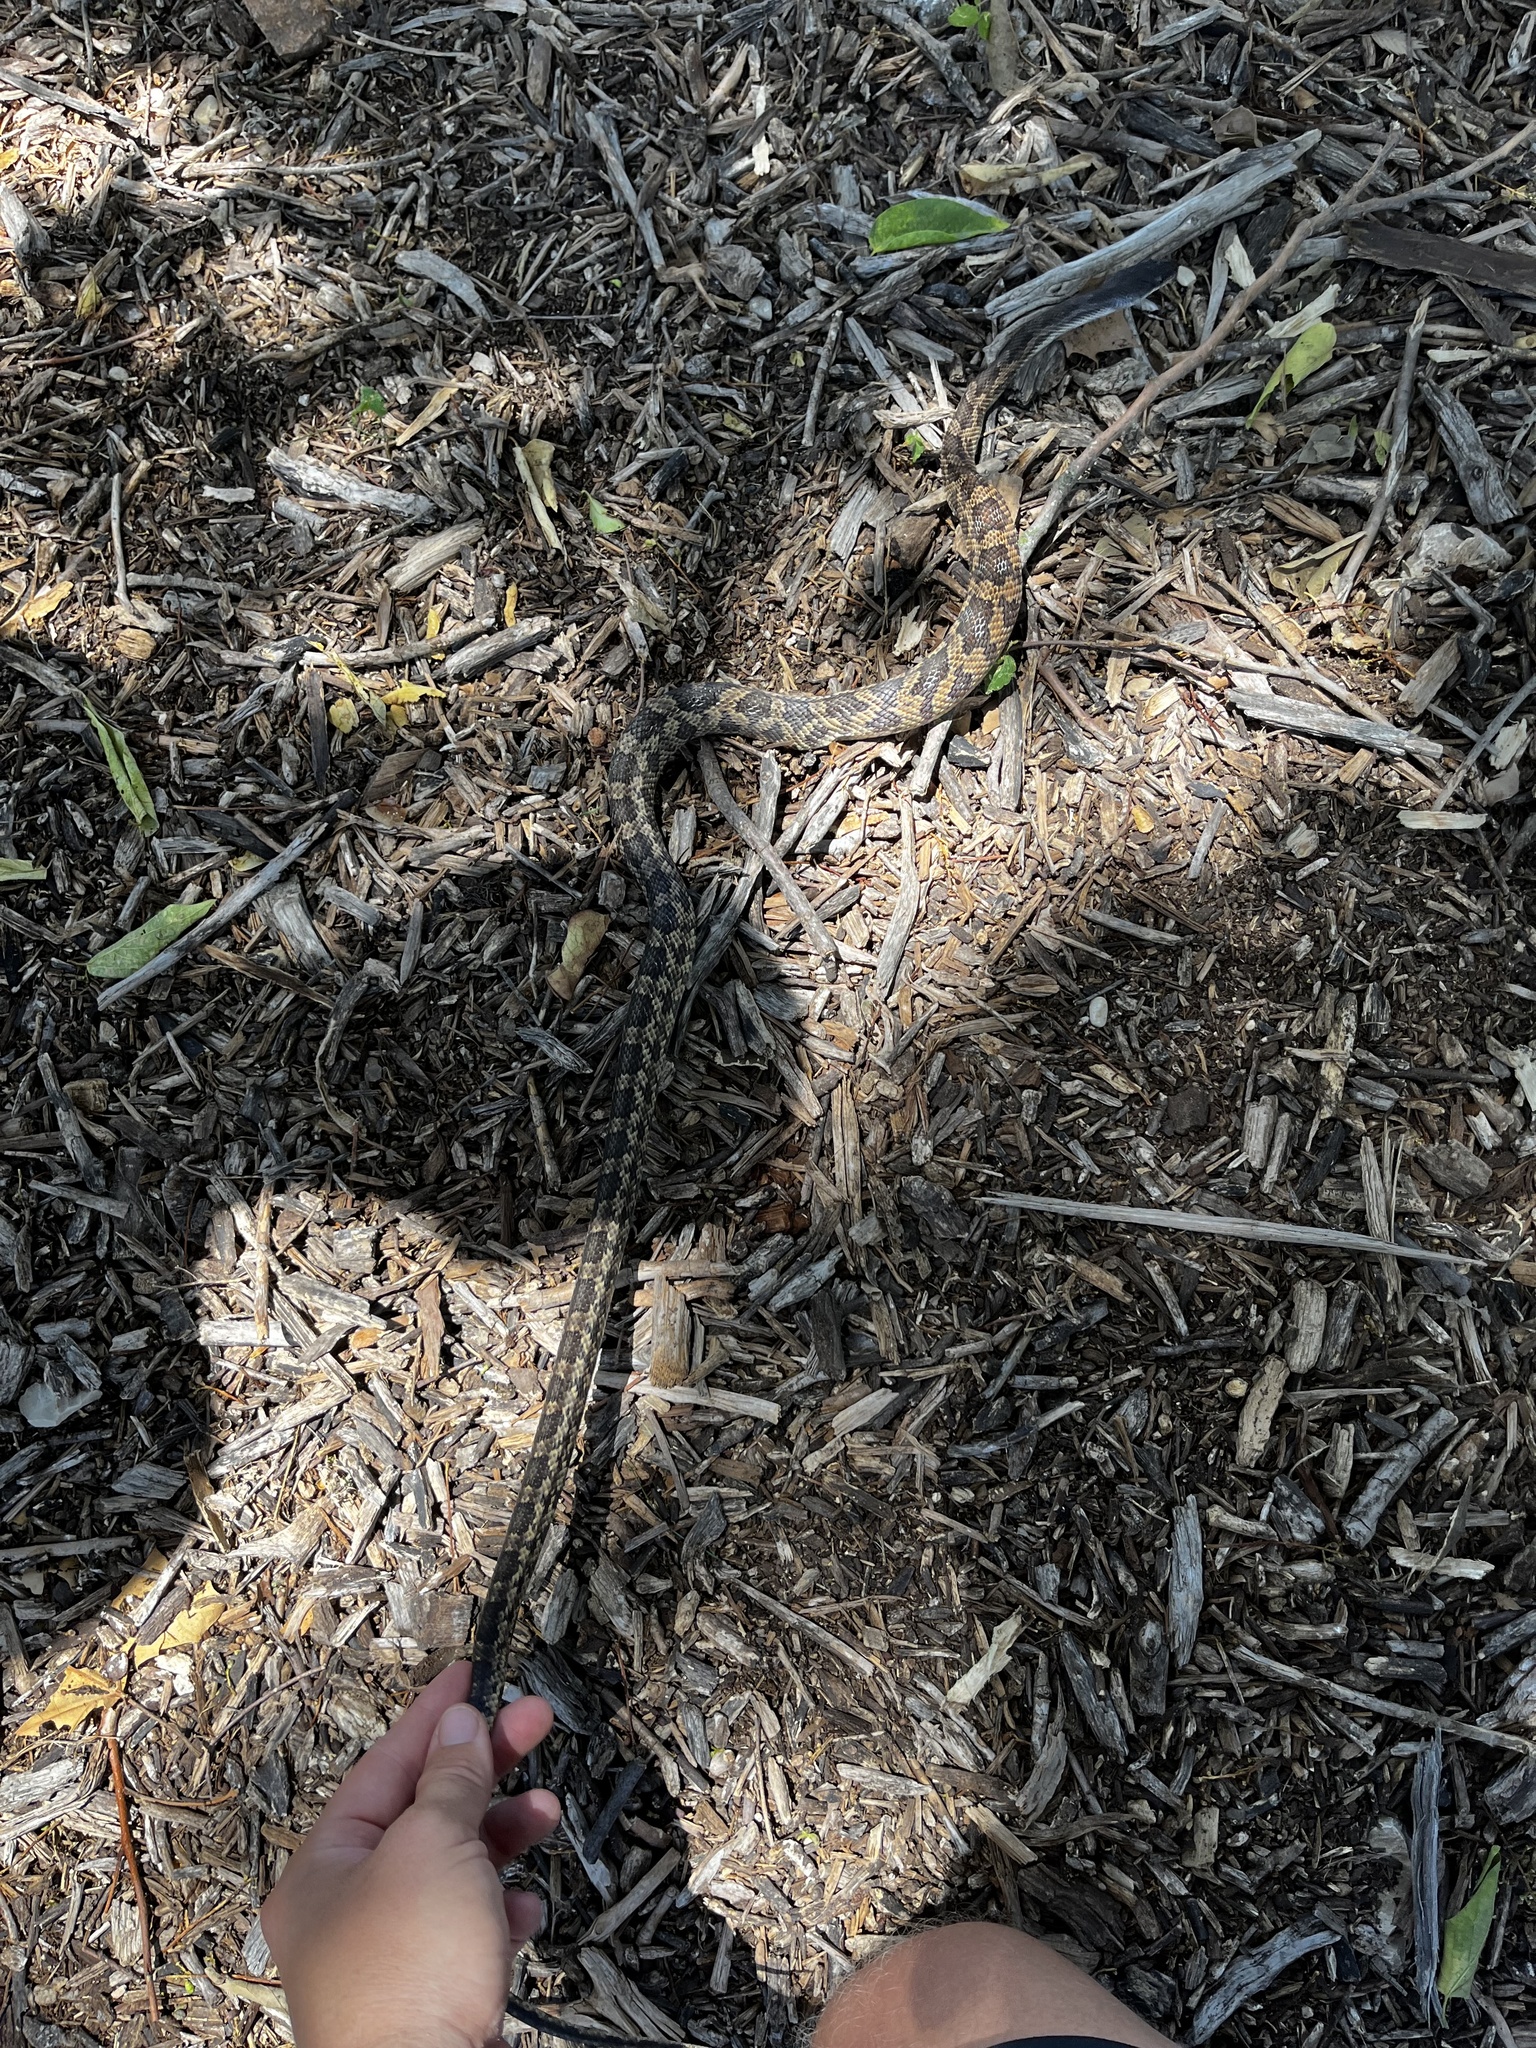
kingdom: Animalia
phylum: Chordata
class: Squamata
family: Colubridae
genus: Pantherophis
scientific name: Pantherophis obsoletus
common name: Black rat snake
